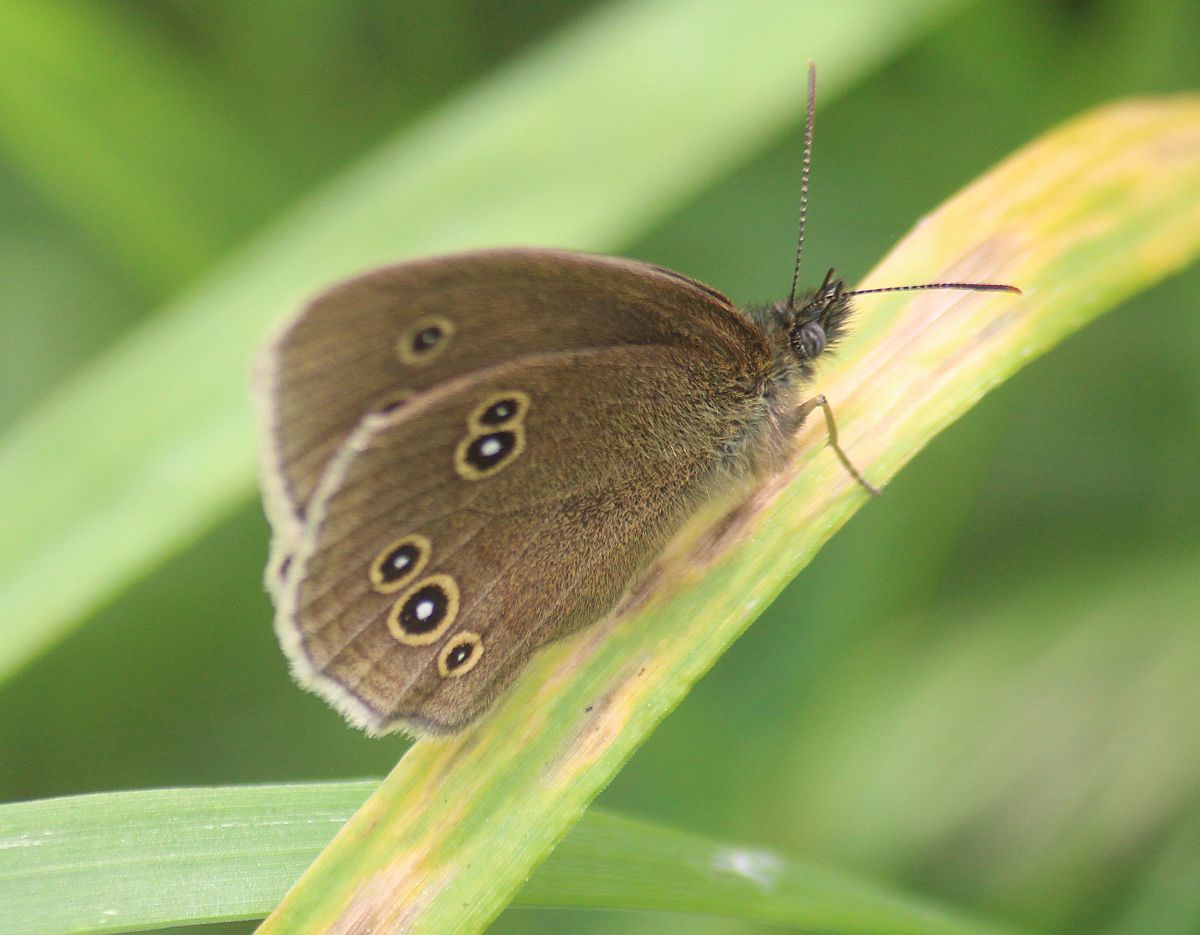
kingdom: Animalia
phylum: Arthropoda
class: Insecta
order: Lepidoptera
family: Nymphalidae
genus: Aphantopus
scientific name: Aphantopus hyperantus
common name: Ringlet
